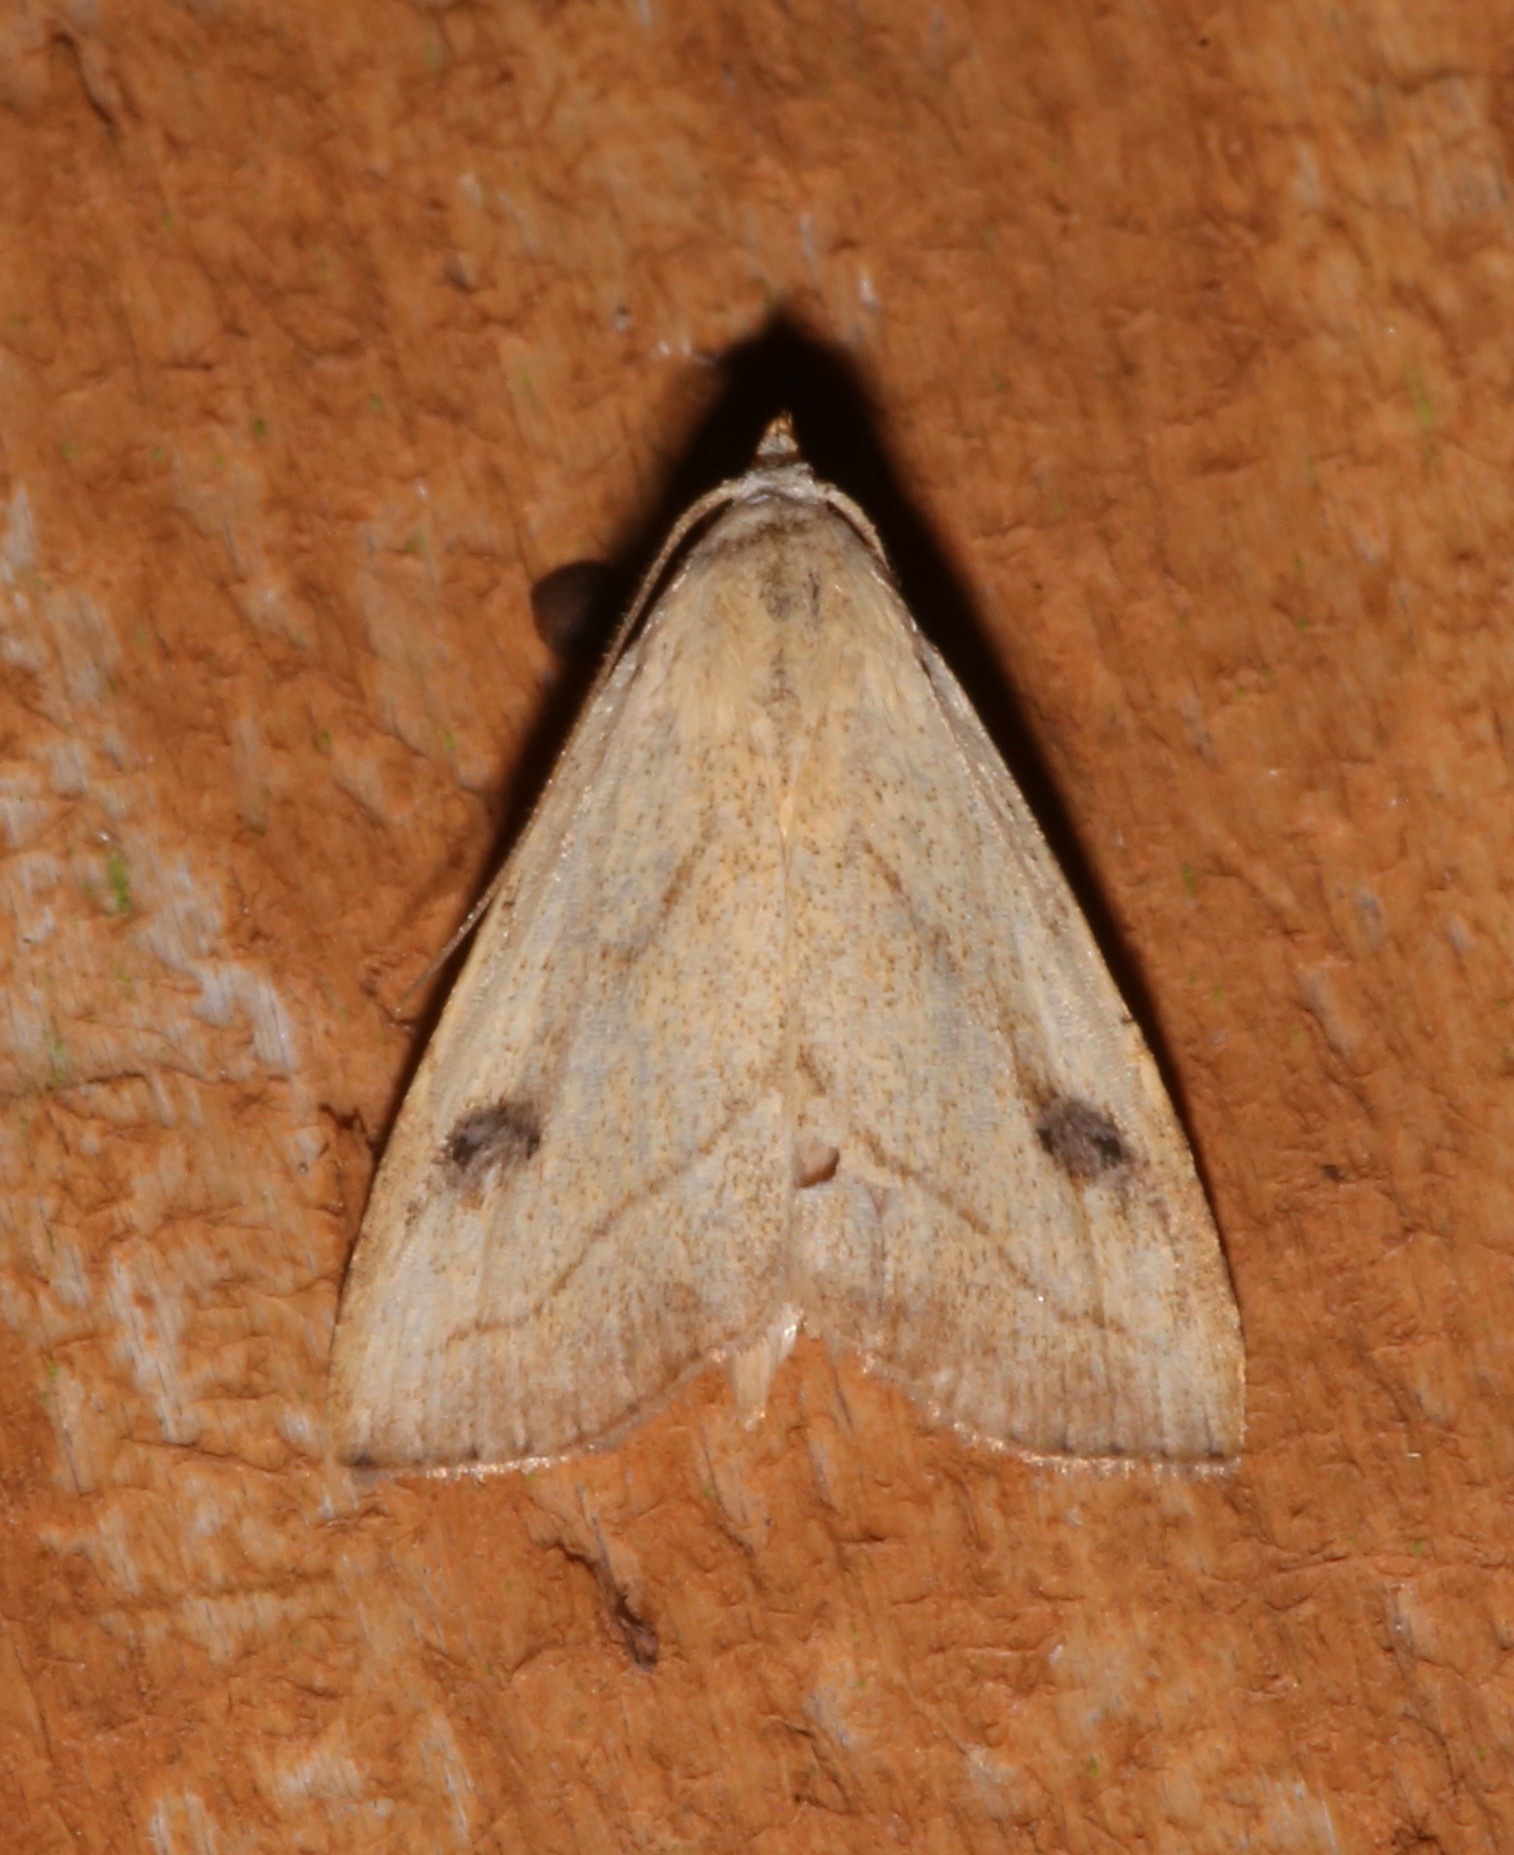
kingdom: Animalia
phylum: Arthropoda
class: Insecta
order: Lepidoptera
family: Erebidae
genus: Rivula
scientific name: Rivula propinqualis
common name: Spotted grass moth
